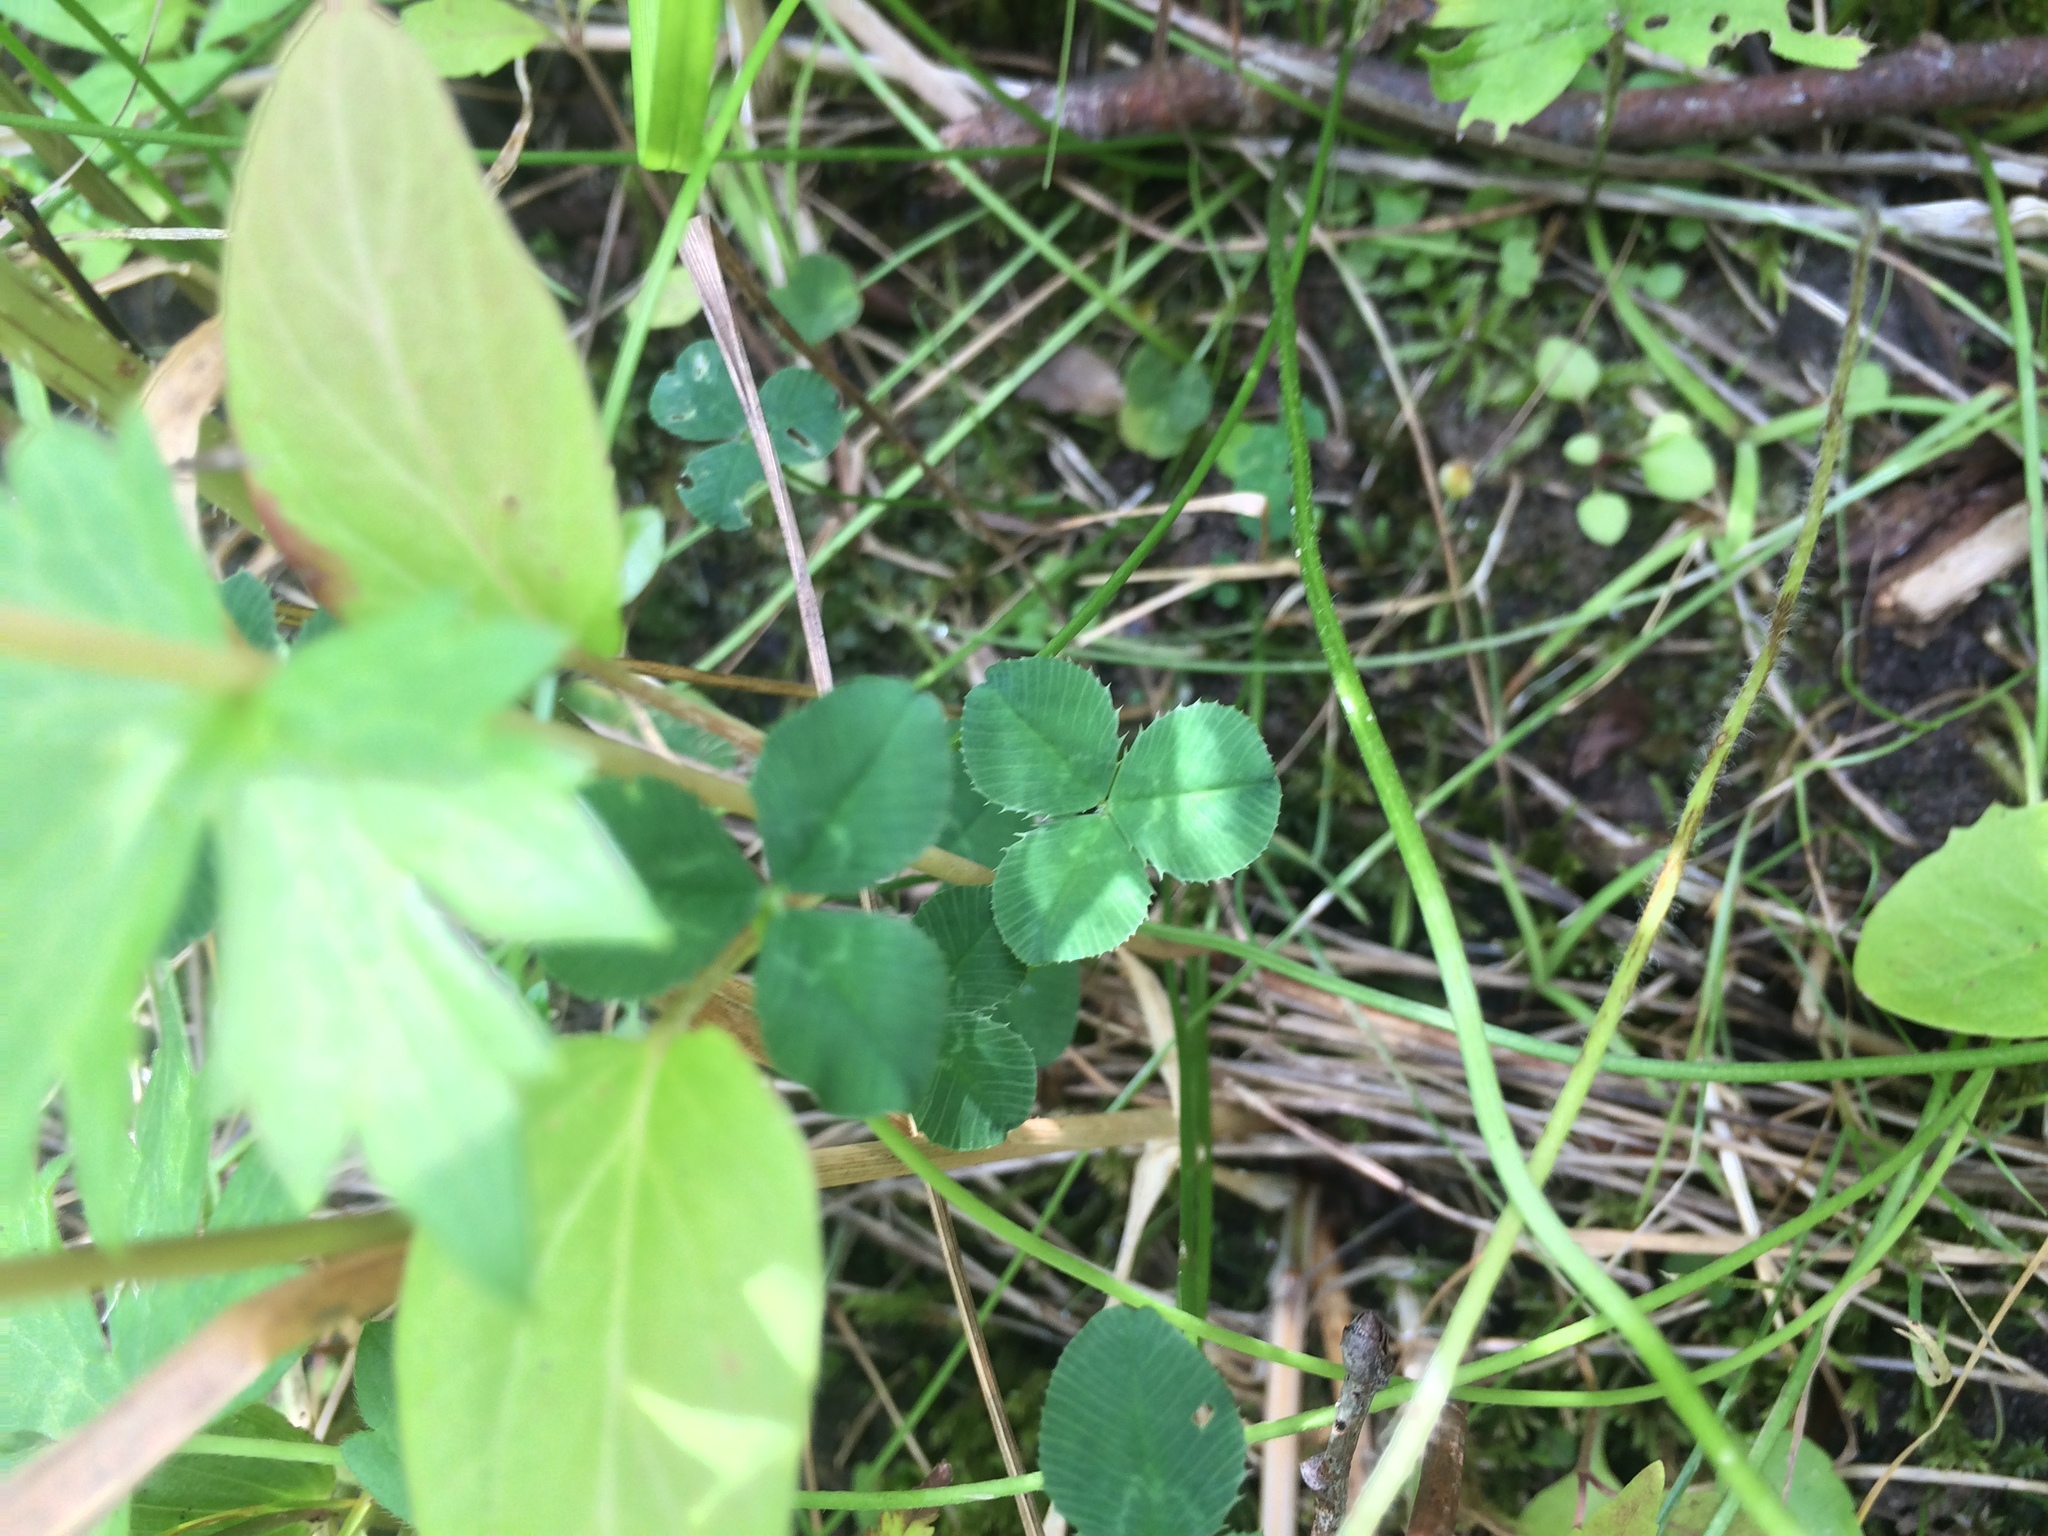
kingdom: Plantae
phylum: Tracheophyta
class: Magnoliopsida
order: Fabales
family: Fabaceae
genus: Trifolium
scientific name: Trifolium repens
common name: White clover
